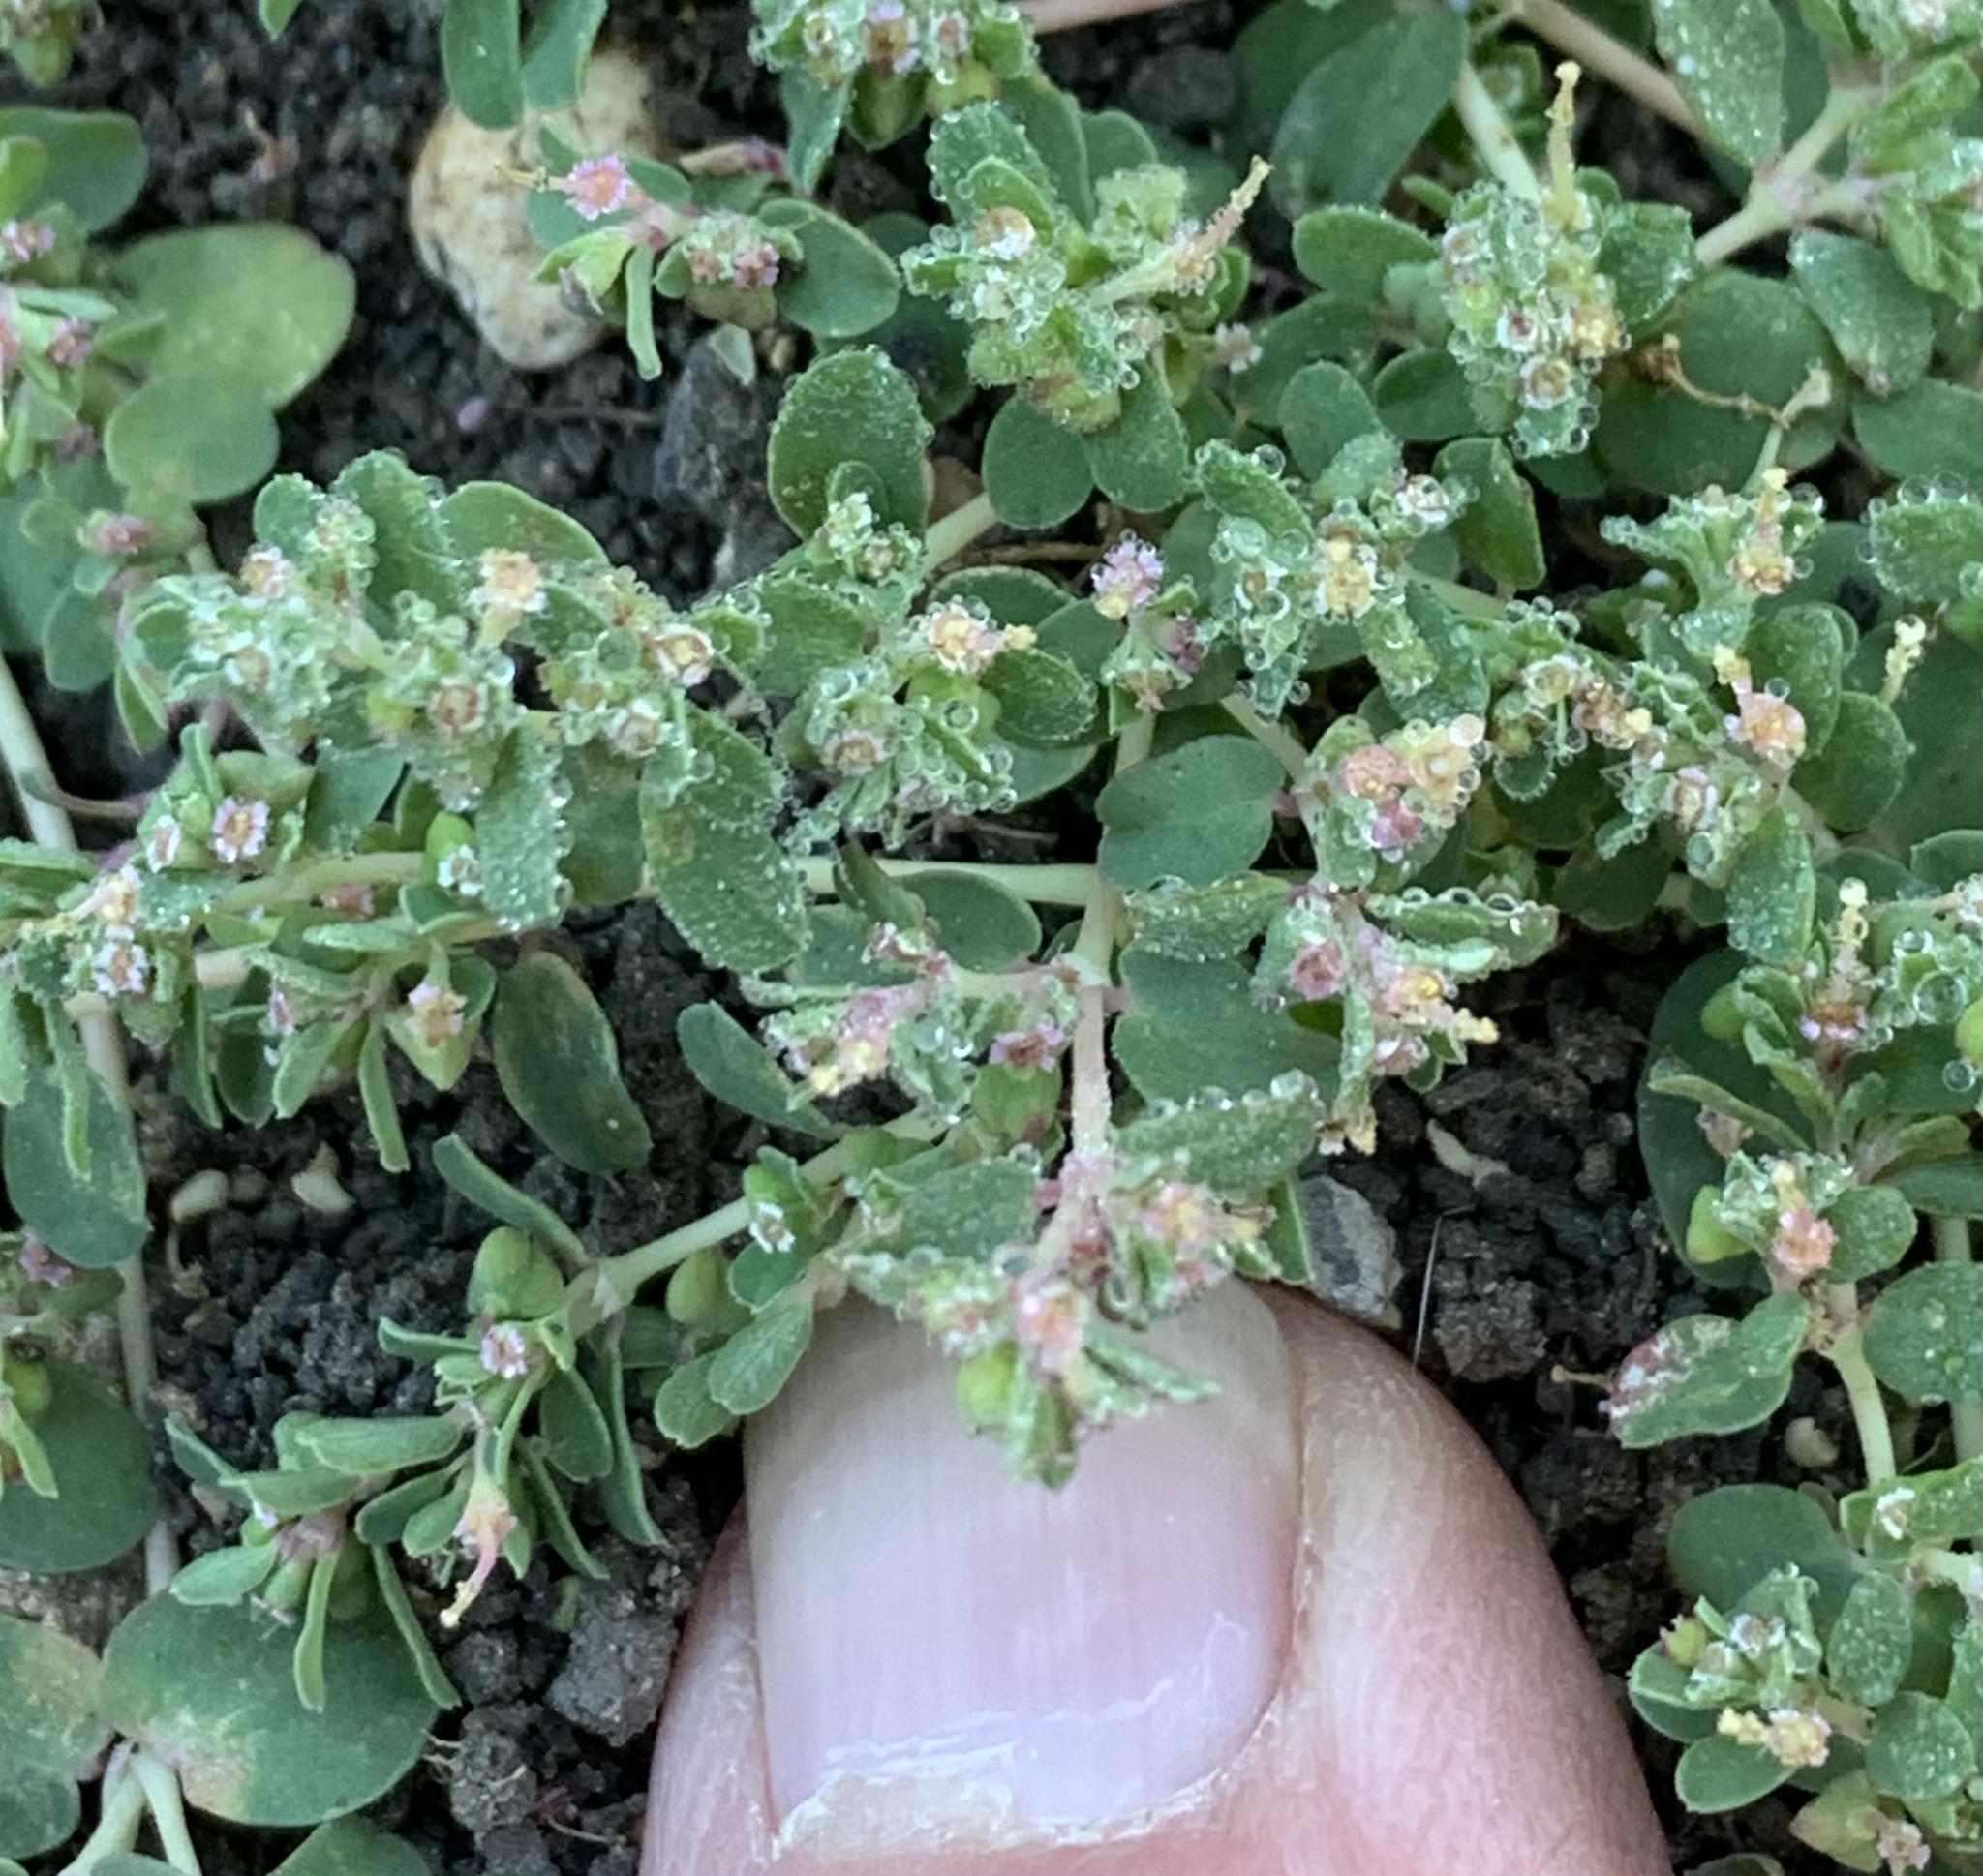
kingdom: Plantae
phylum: Tracheophyta
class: Magnoliopsida
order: Malpighiales
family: Euphorbiaceae
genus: Euphorbia
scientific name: Euphorbia serpens
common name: Matted sandmat
